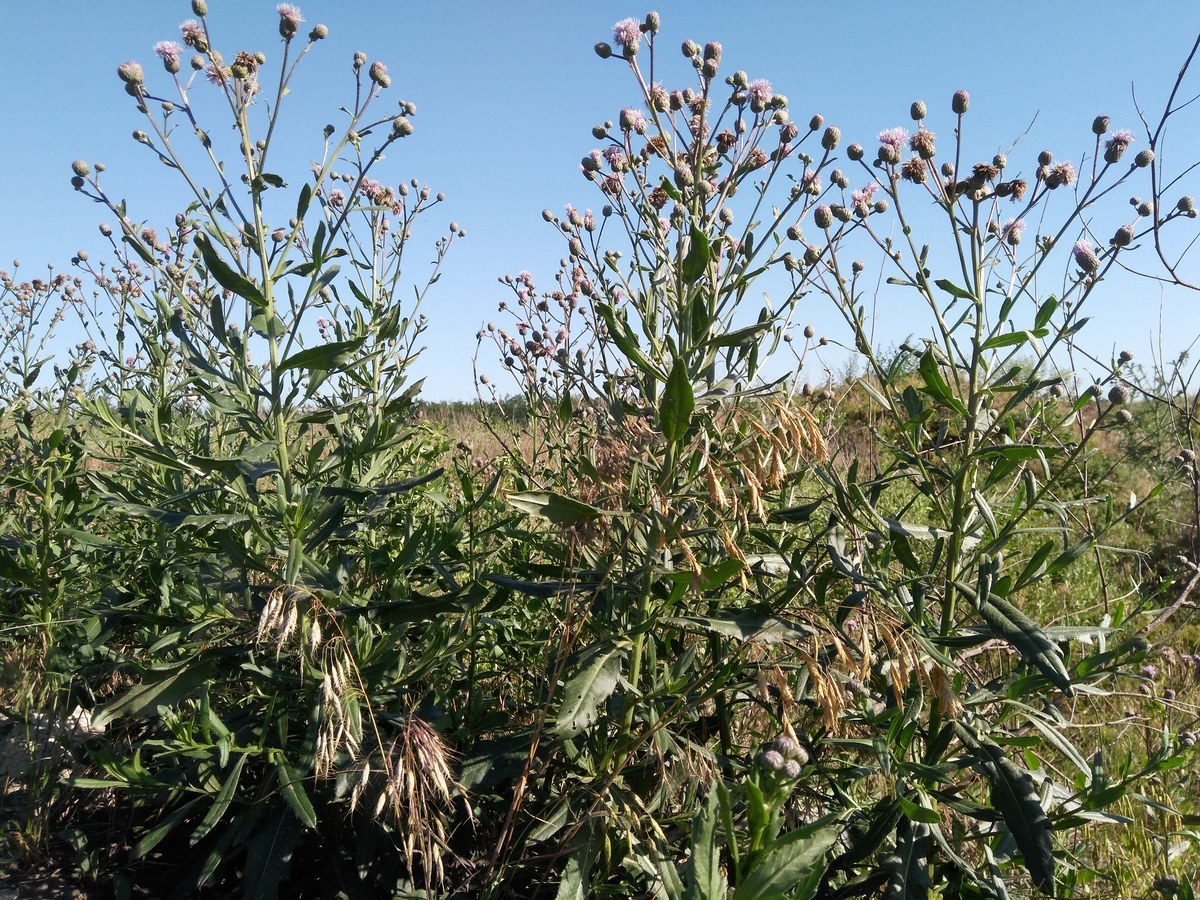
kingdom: Plantae
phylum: Tracheophyta
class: Magnoliopsida
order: Asterales
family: Asteraceae
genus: Cirsium
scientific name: Cirsium arvense
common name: Creeping thistle
